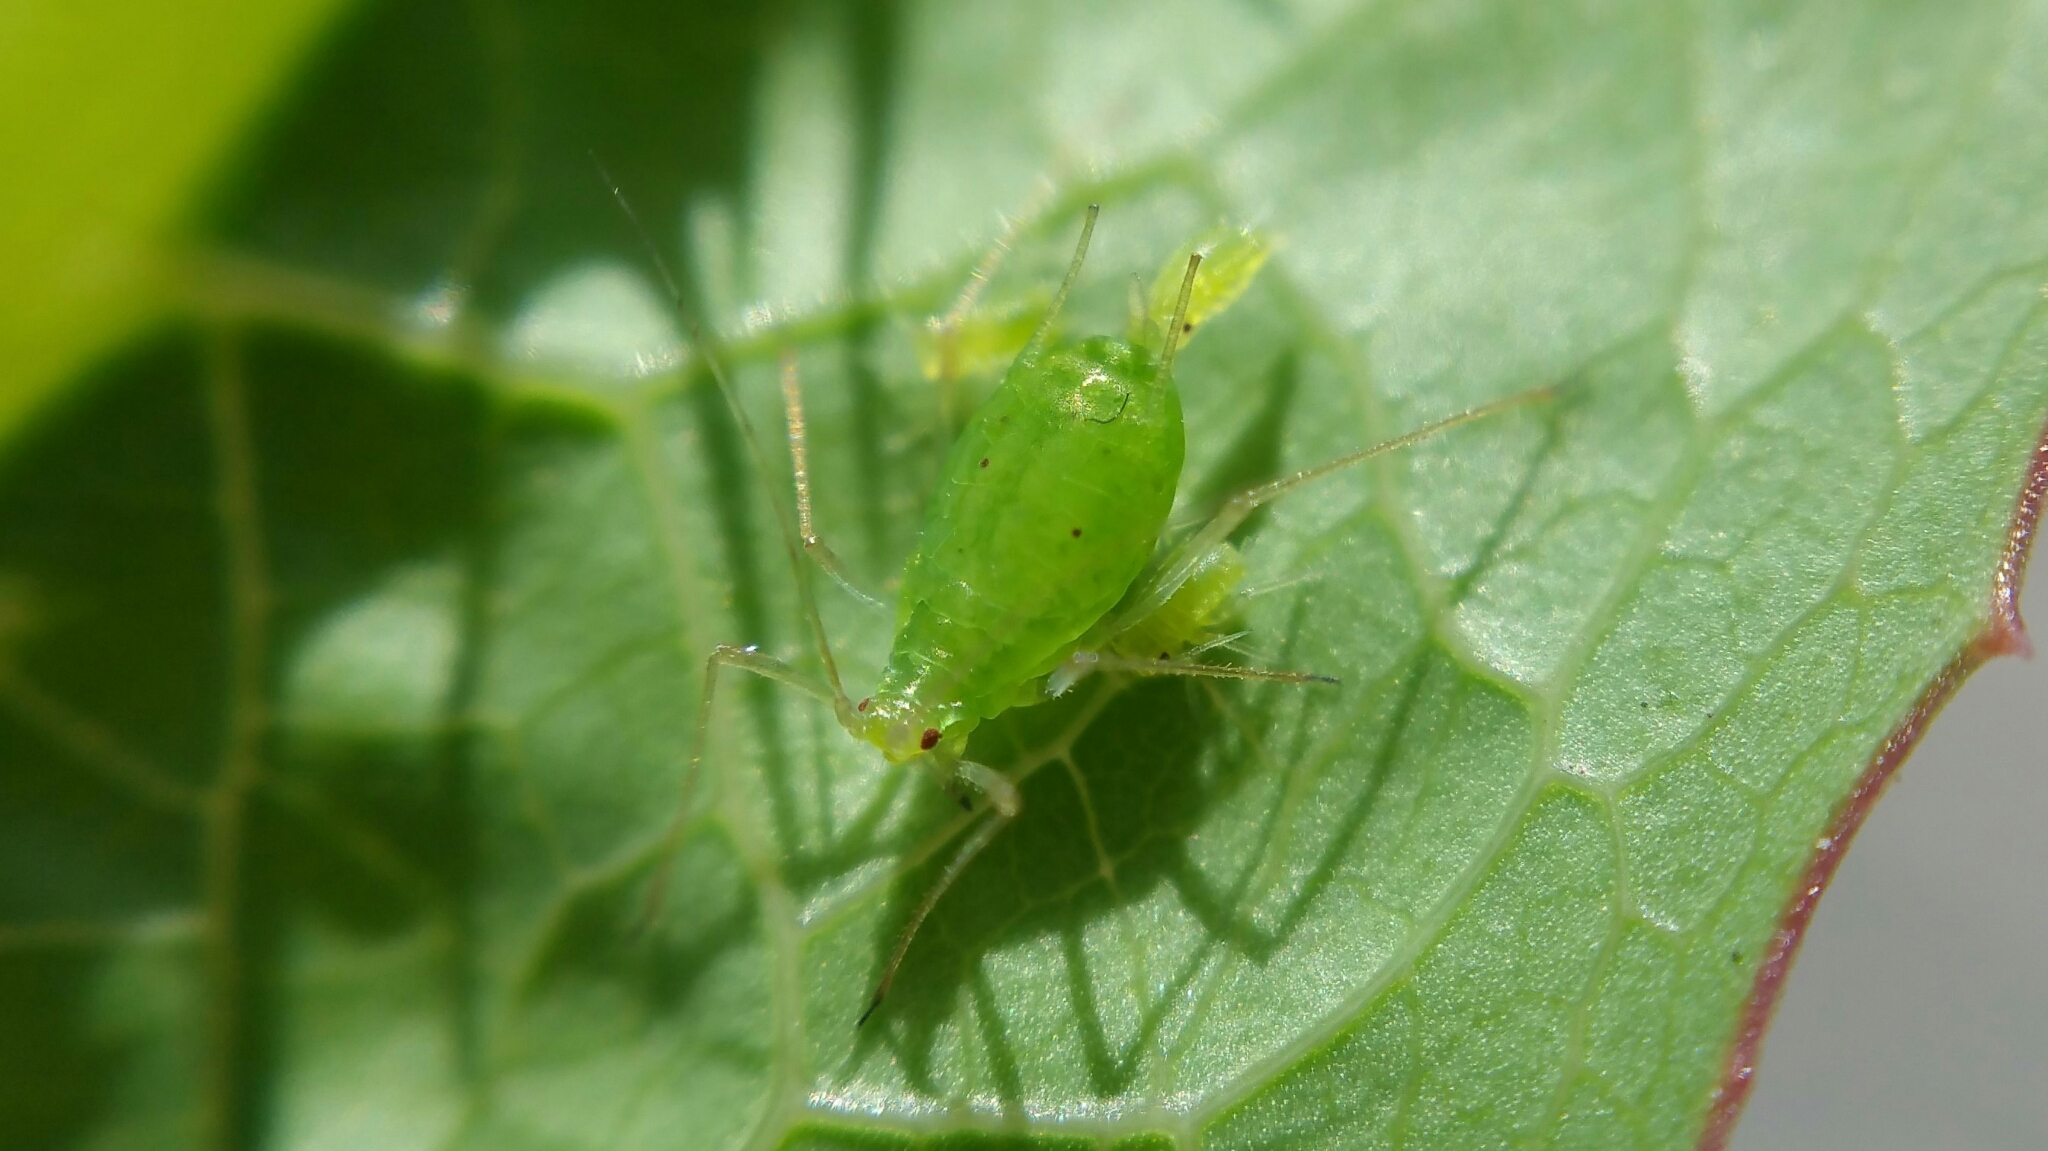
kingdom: Animalia
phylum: Arthropoda
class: Insecta
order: Hemiptera
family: Aphididae
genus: Macrosiphum
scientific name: Macrosiphum euphorbiae
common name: Potato aphid
